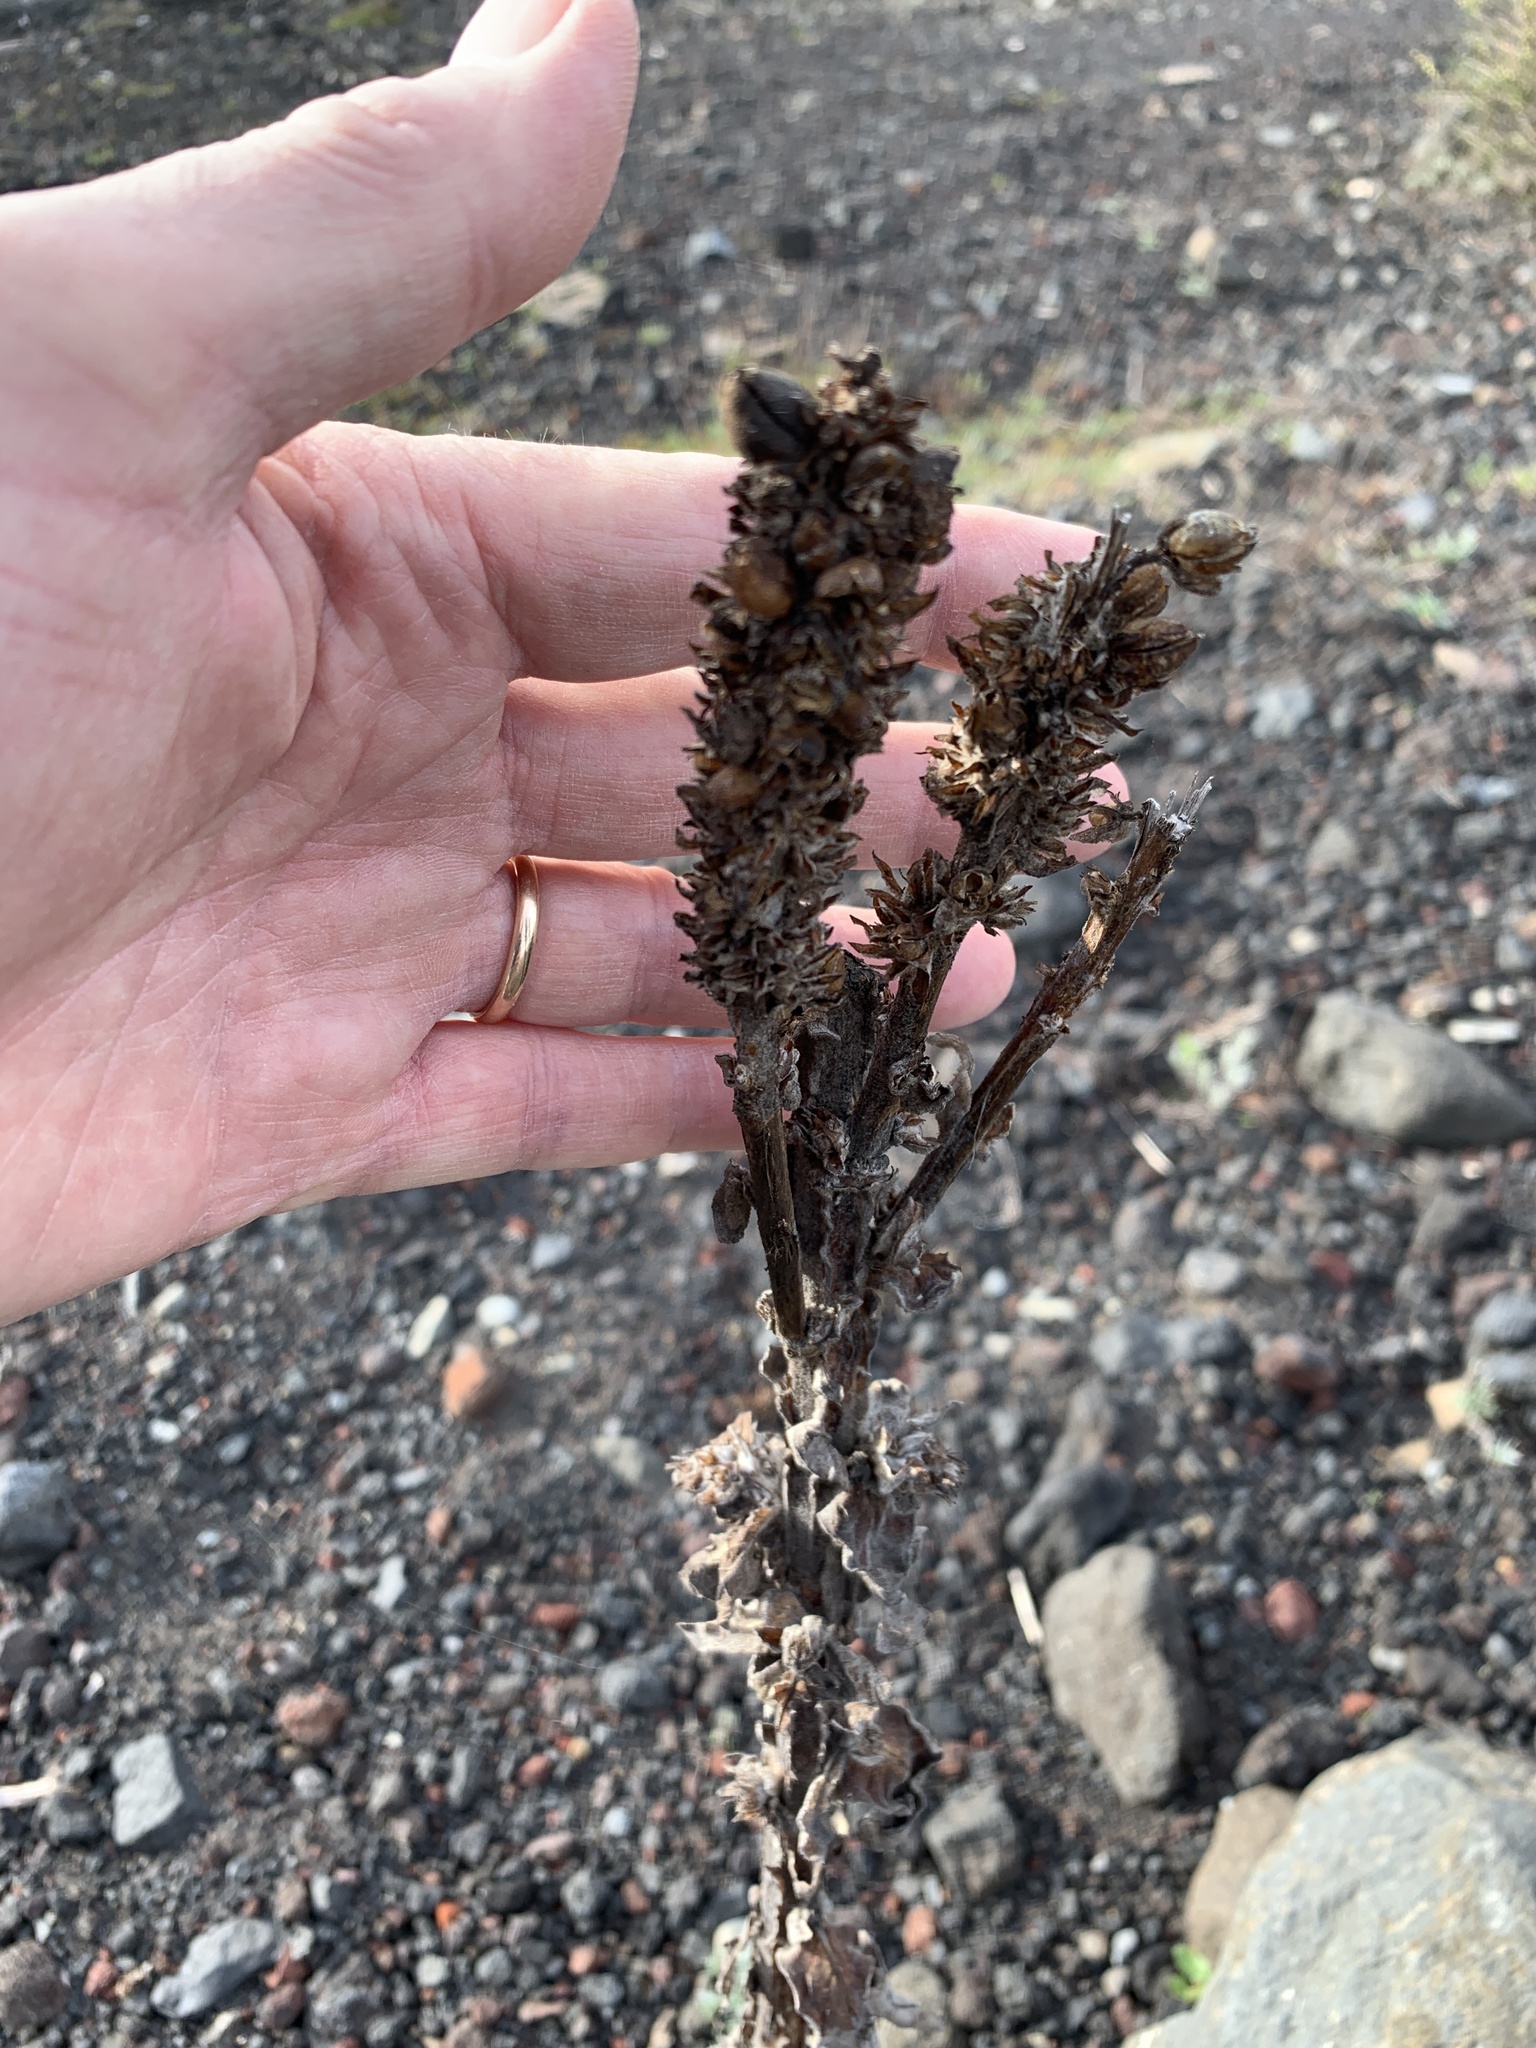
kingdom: Plantae
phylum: Tracheophyta
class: Magnoliopsida
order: Lamiales
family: Scrophulariaceae
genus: Verbascum
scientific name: Verbascum thapsus
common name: Common mullein
